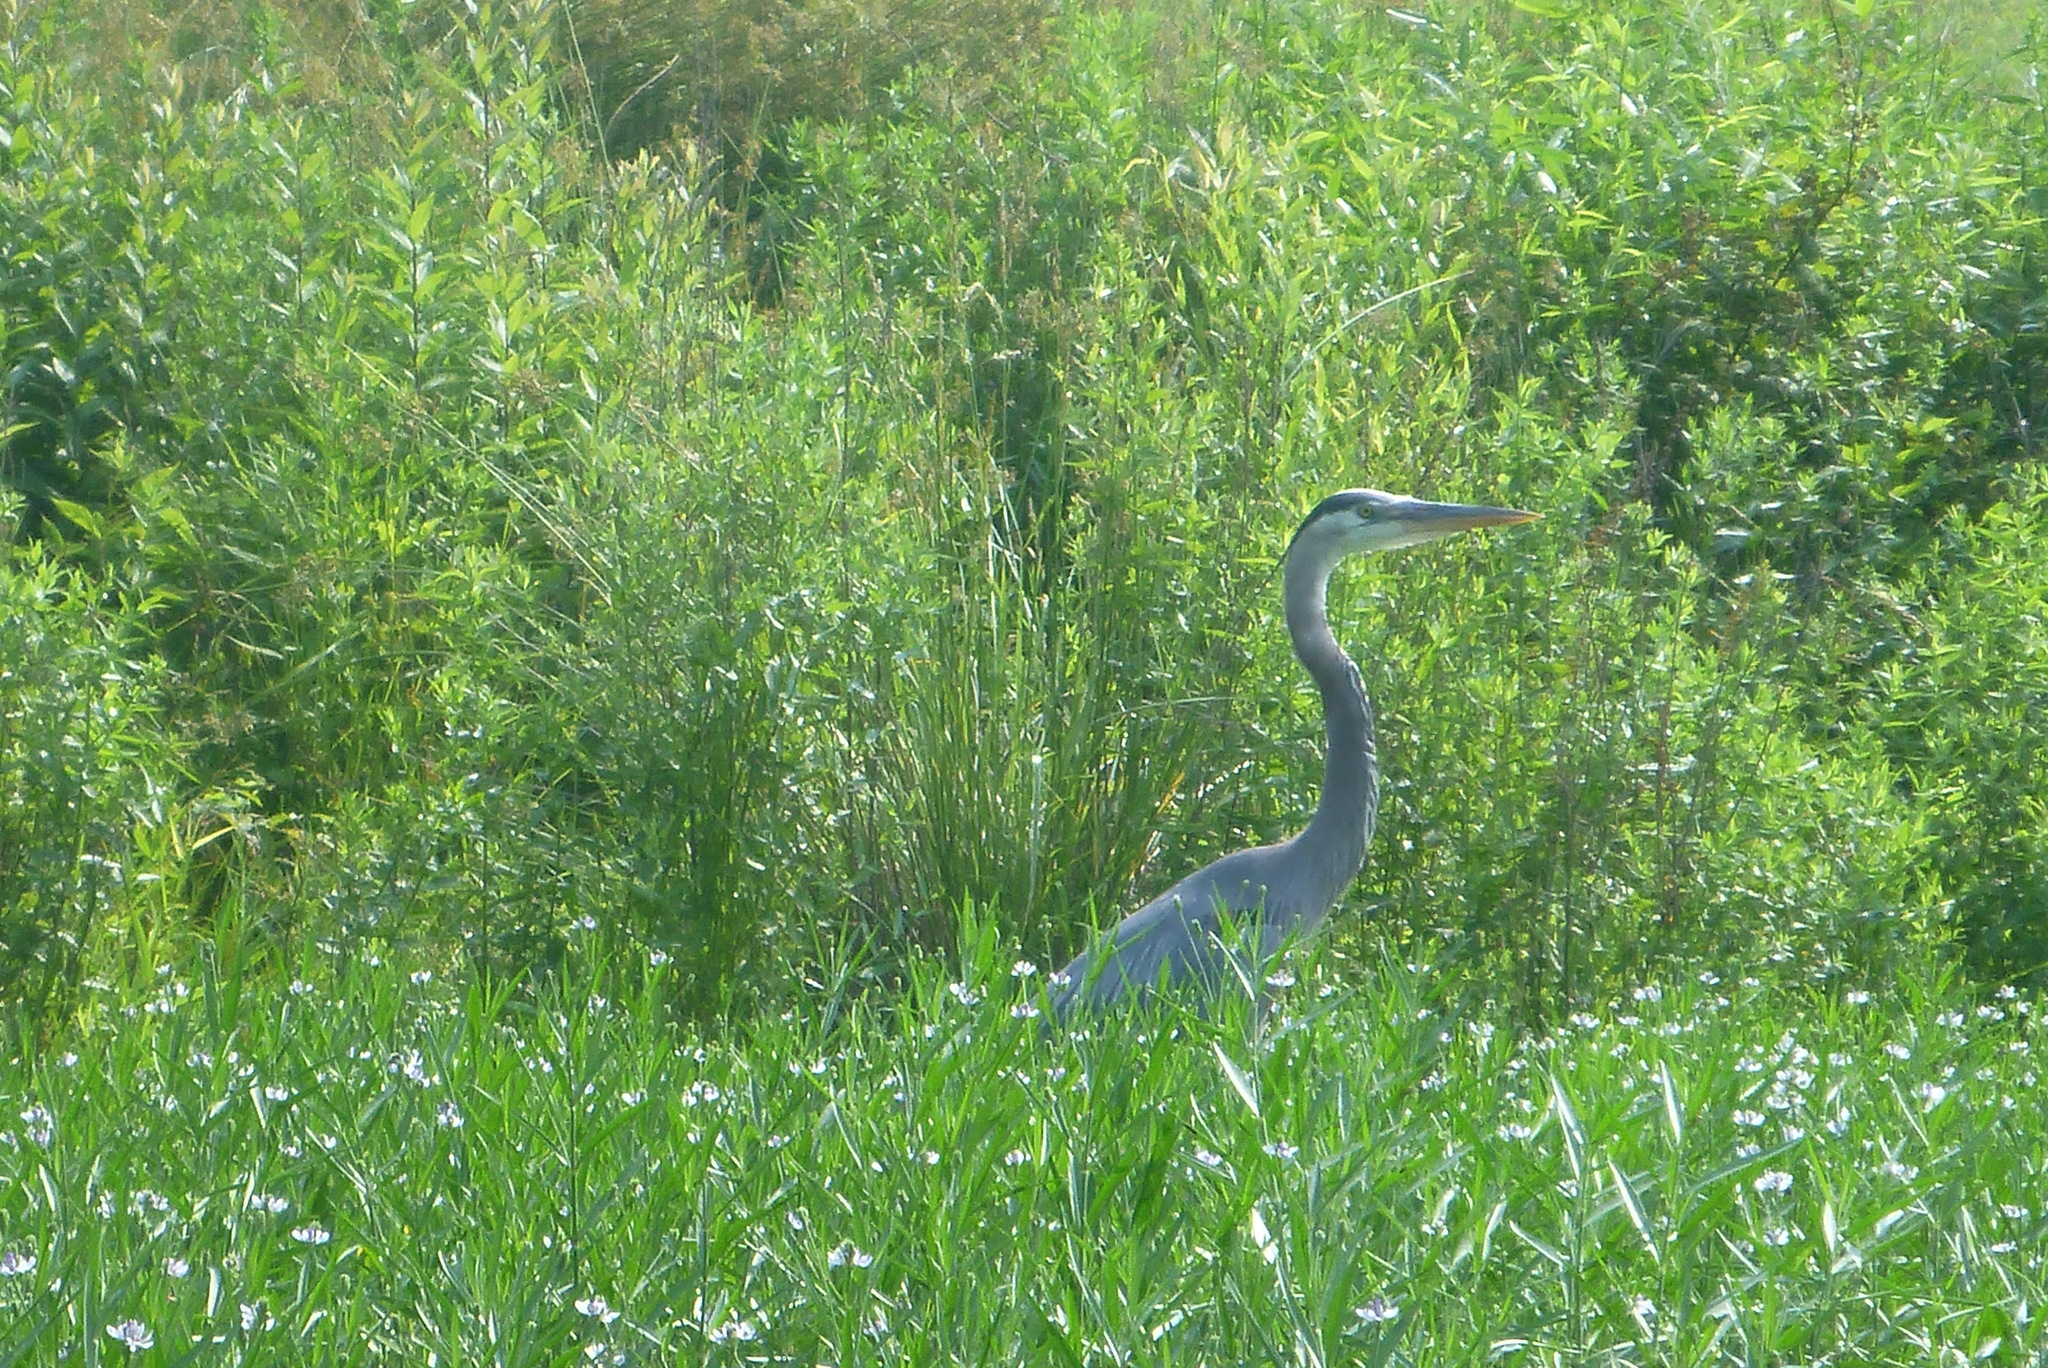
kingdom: Animalia
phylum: Chordata
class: Aves
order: Pelecaniformes
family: Ardeidae
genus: Ardea
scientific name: Ardea herodias
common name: Great blue heron
